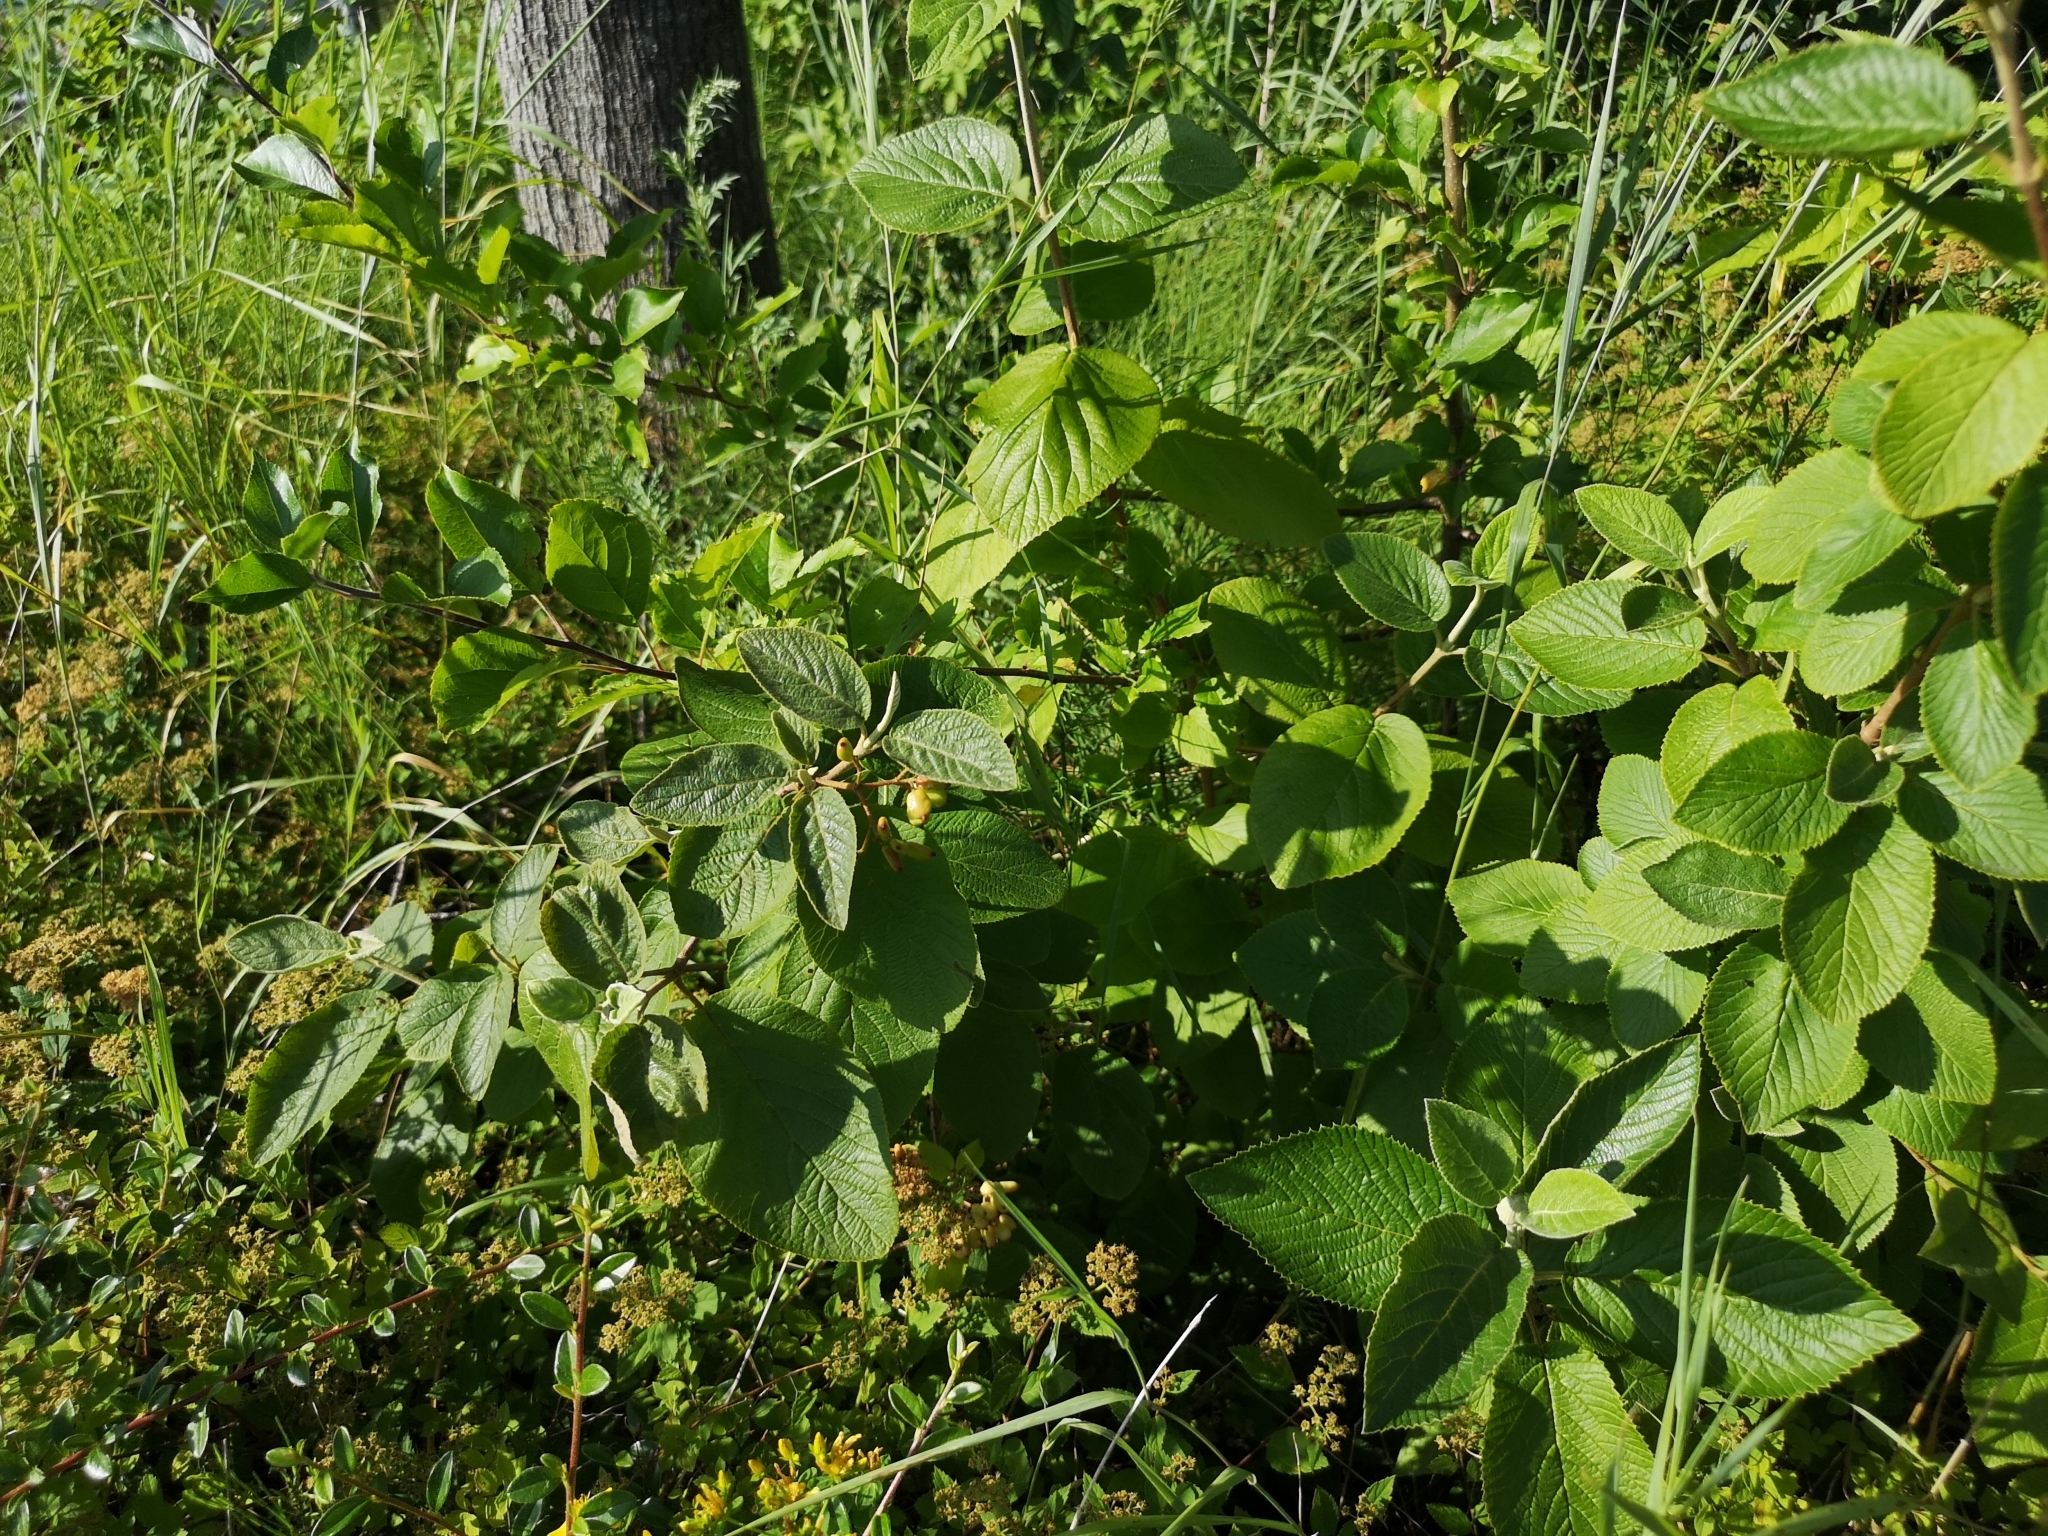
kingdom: Plantae
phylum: Tracheophyta
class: Magnoliopsida
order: Dipsacales
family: Viburnaceae
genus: Viburnum
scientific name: Viburnum lantana
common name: Wayfaring tree
